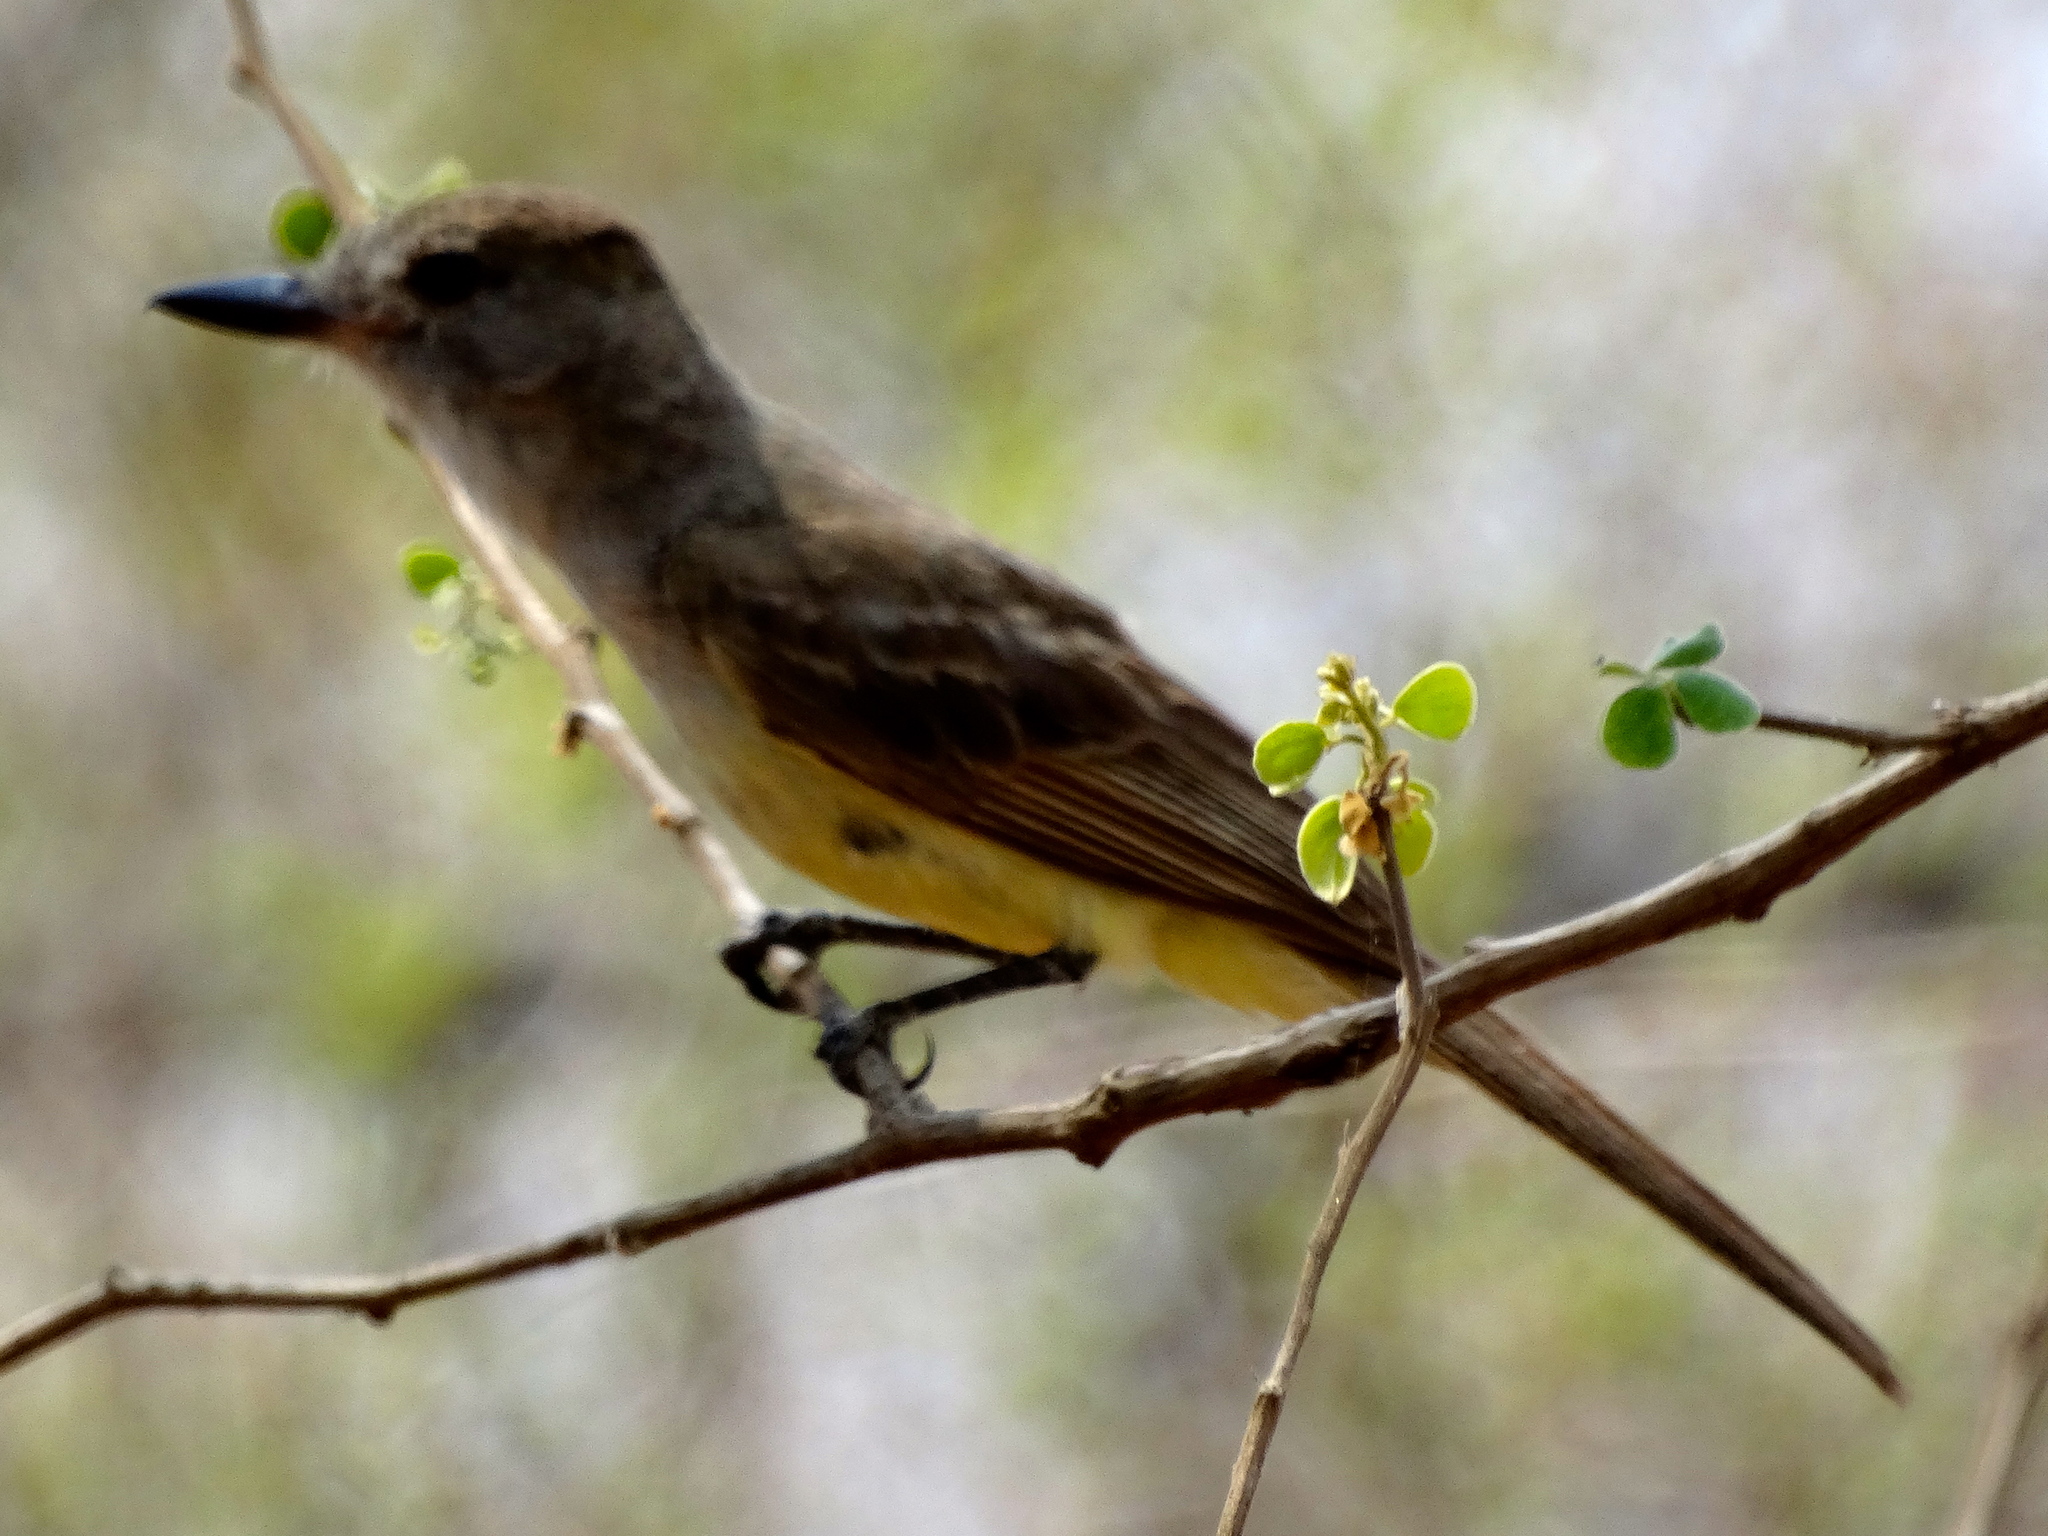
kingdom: Animalia
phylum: Chordata
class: Aves
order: Passeriformes
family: Tyrannidae
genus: Myiarchus
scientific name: Myiarchus
